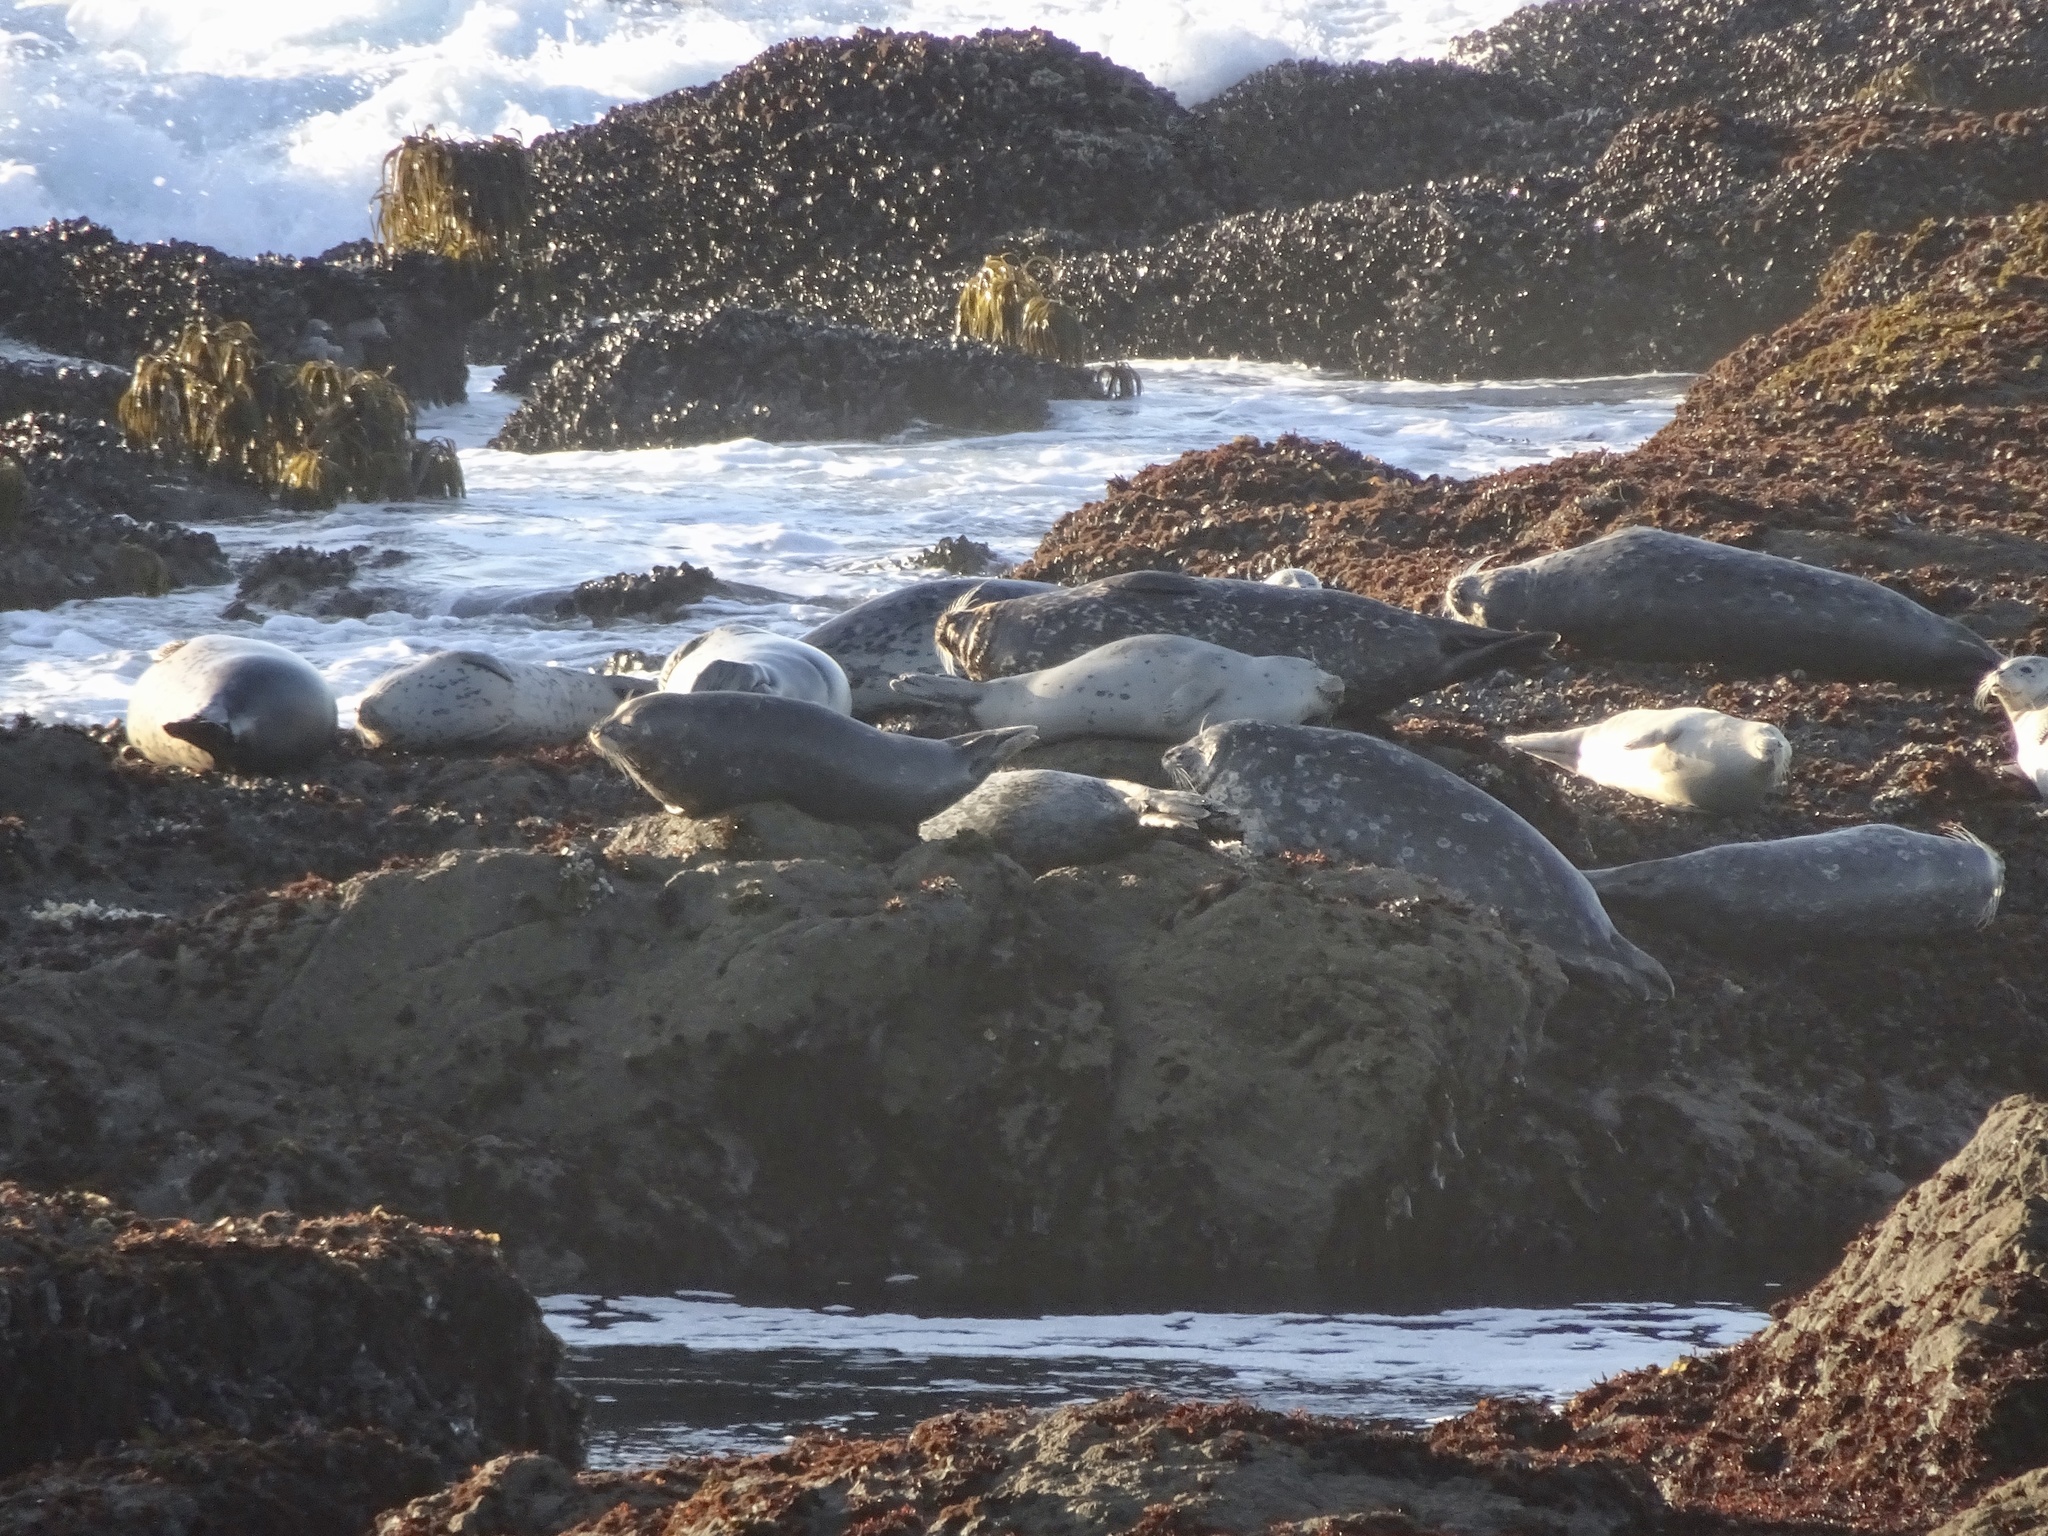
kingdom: Animalia
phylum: Chordata
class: Mammalia
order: Carnivora
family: Phocidae
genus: Phoca
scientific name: Phoca vitulina
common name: Harbor seal
